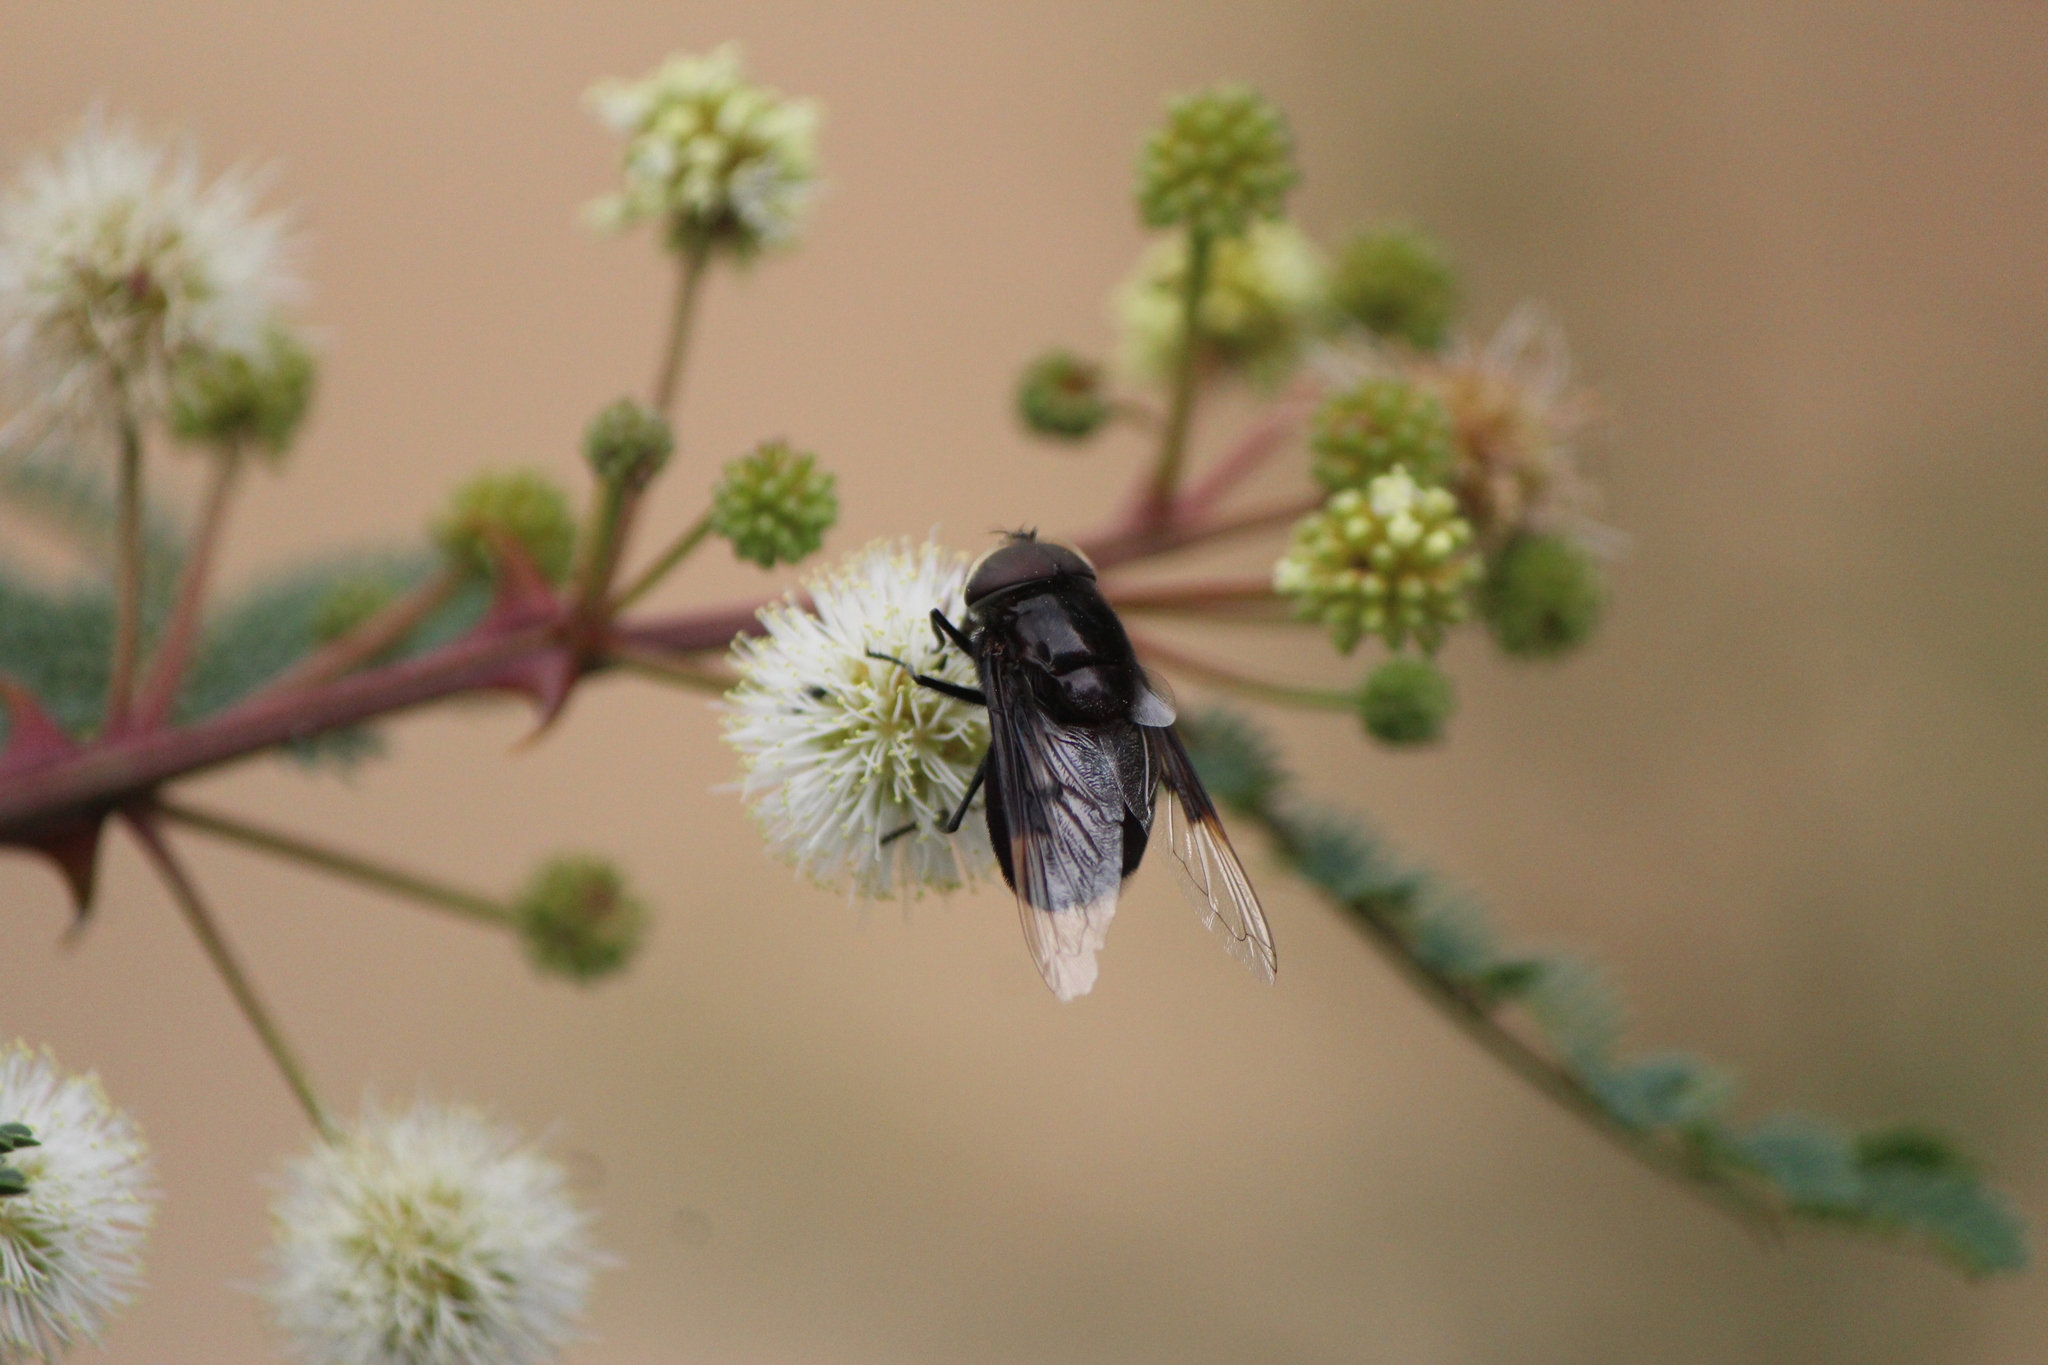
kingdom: Animalia
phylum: Arthropoda
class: Insecta
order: Diptera
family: Syrphidae
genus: Copestylum
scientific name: Copestylum violaceum
